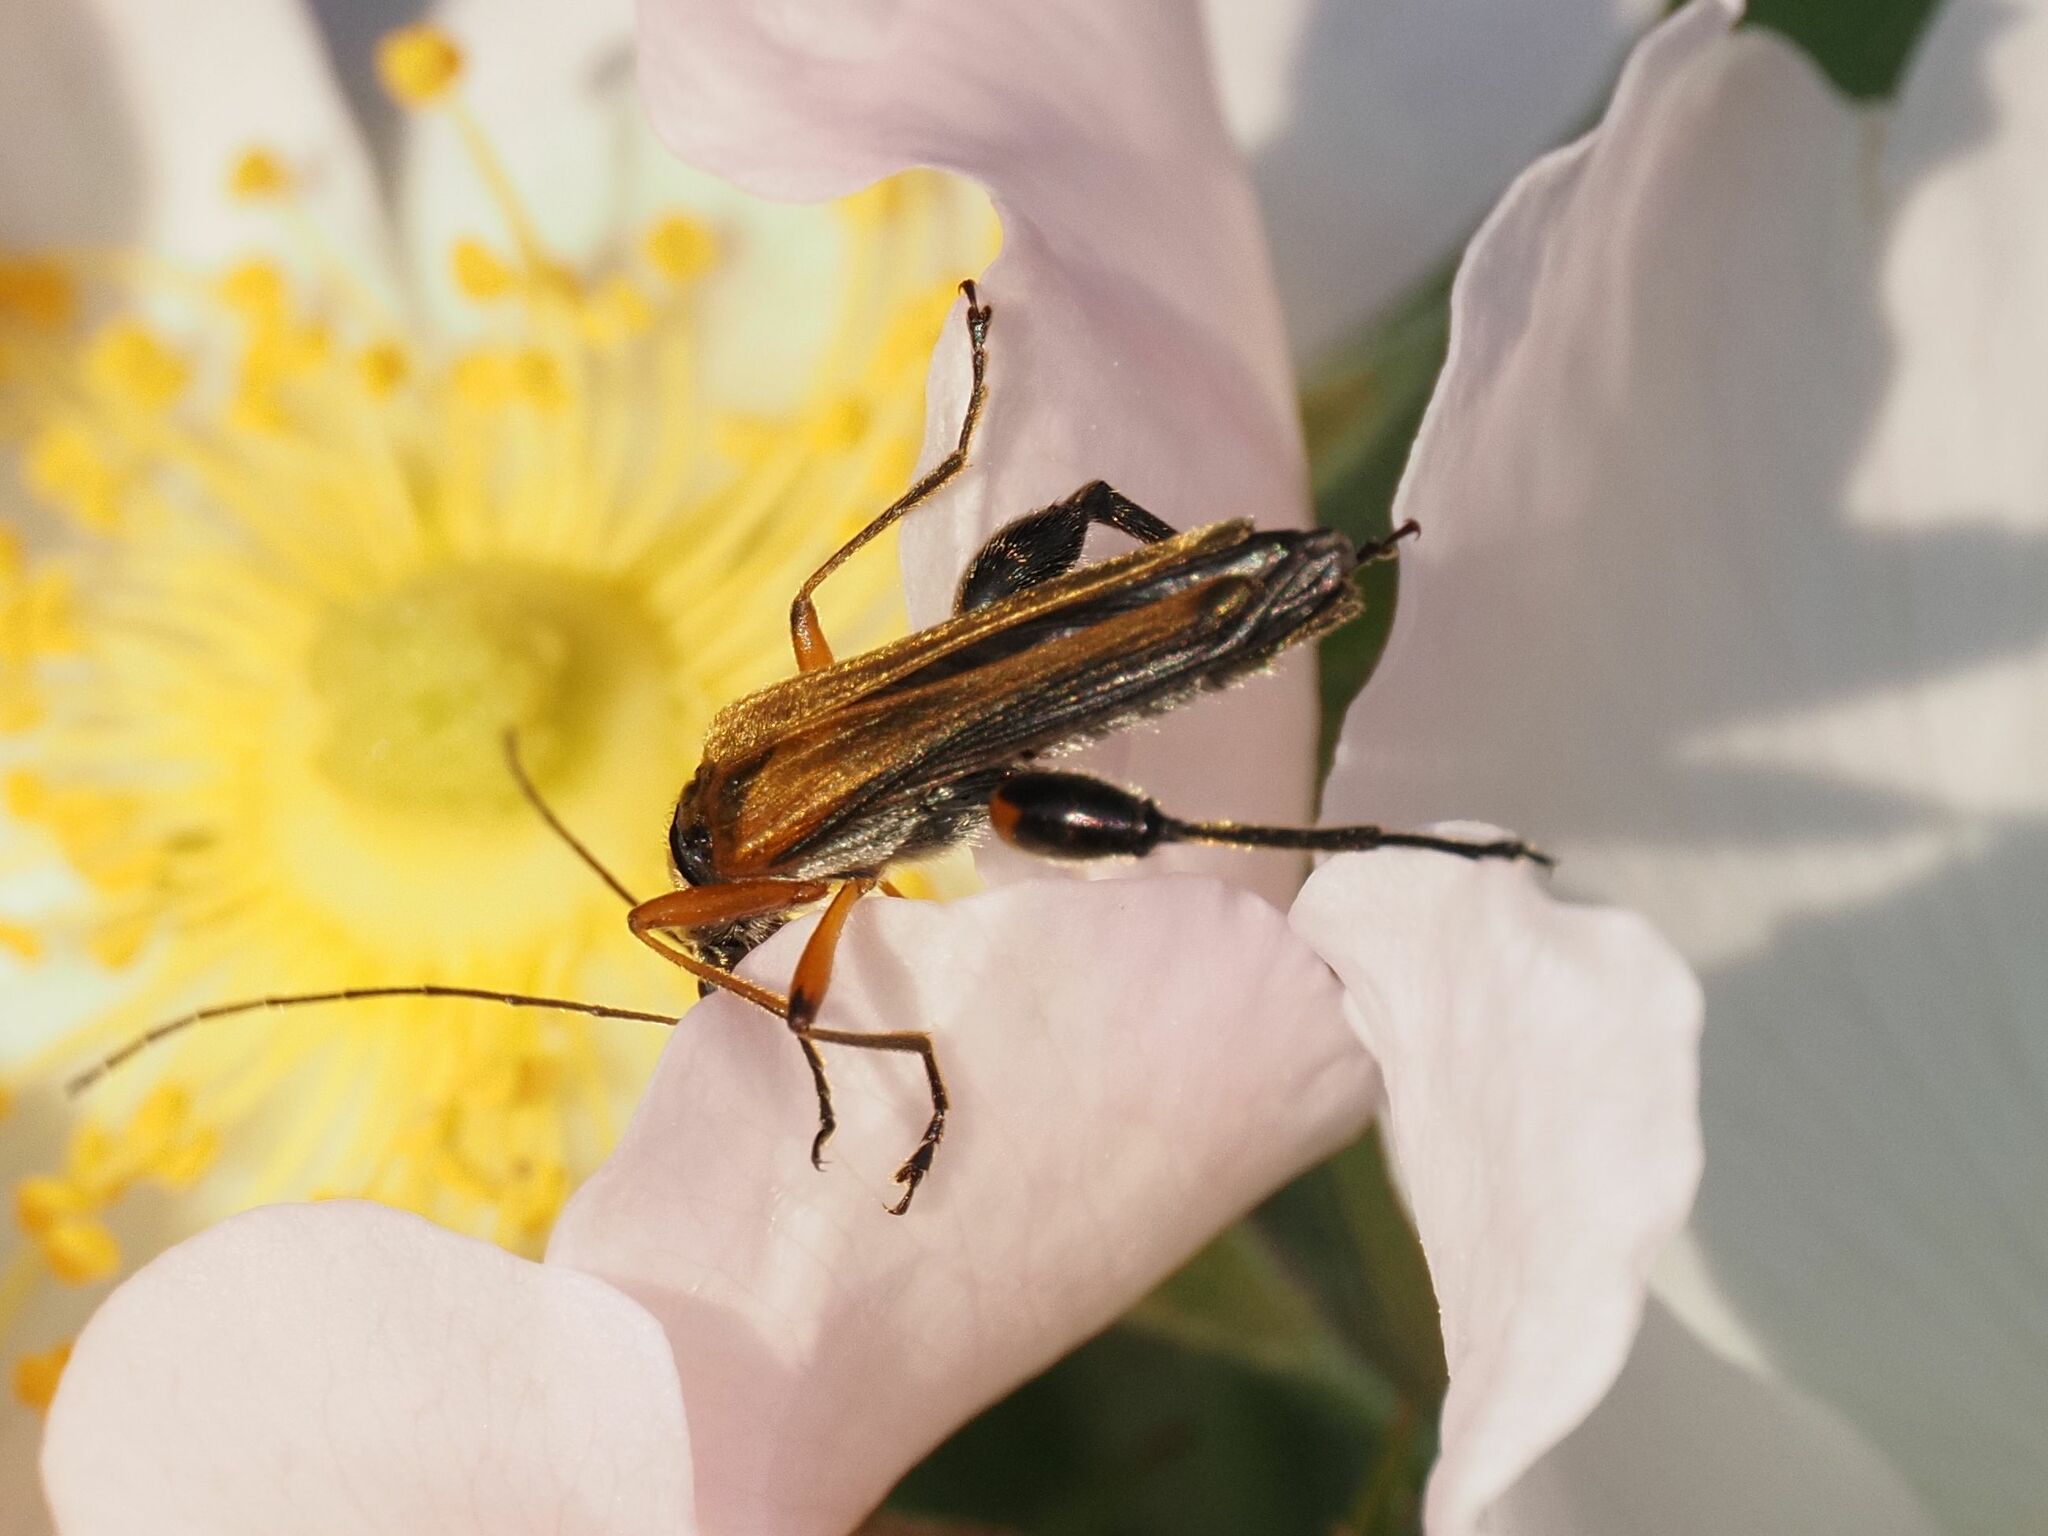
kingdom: Animalia
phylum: Arthropoda
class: Insecta
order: Coleoptera
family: Oedemeridae
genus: Oedemera
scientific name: Oedemera podagrariae
